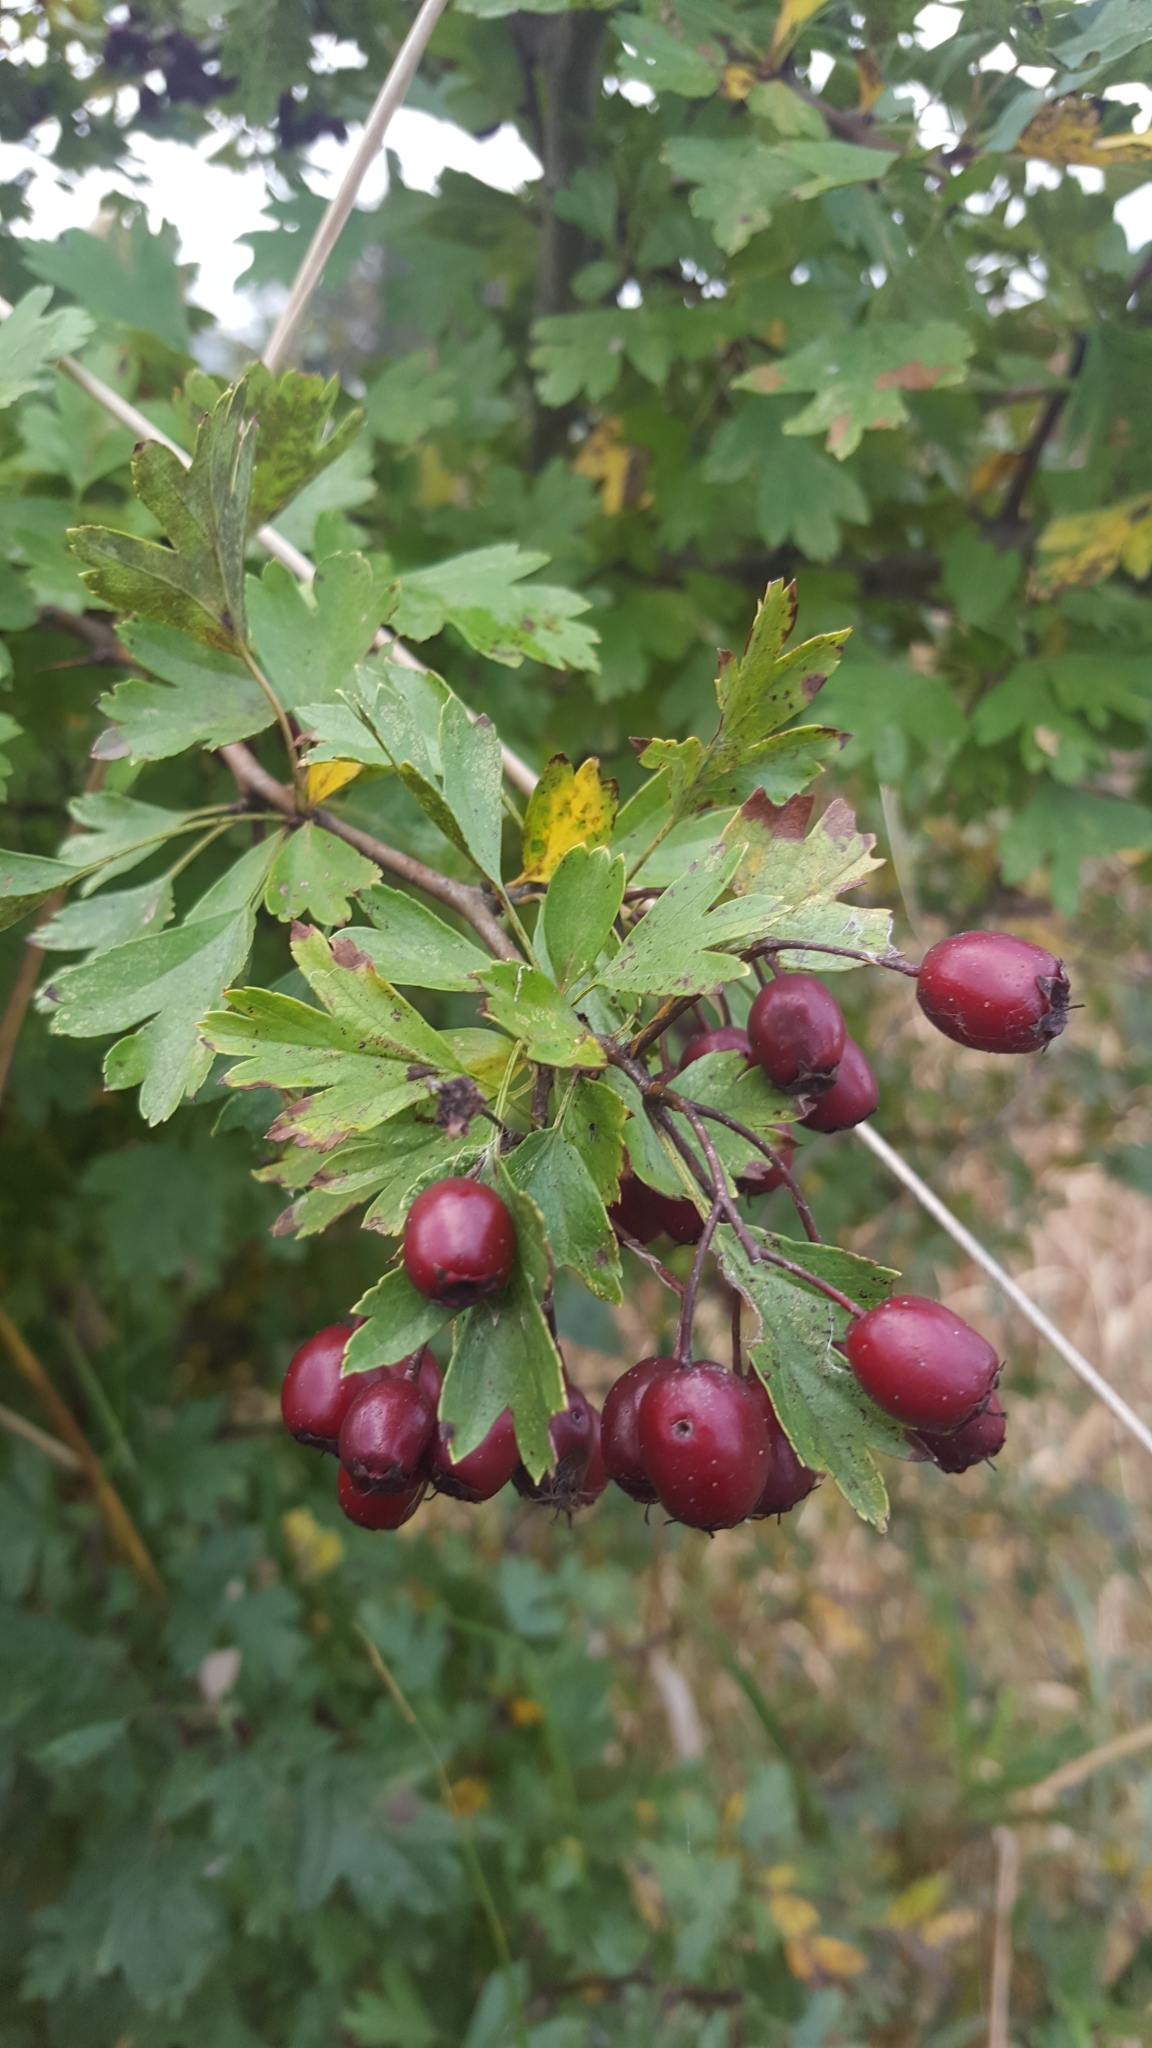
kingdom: Plantae
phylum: Tracheophyta
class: Magnoliopsida
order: Rosales
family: Rosaceae
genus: Crataegus
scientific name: Crataegus monogyna
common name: Hawthorn
